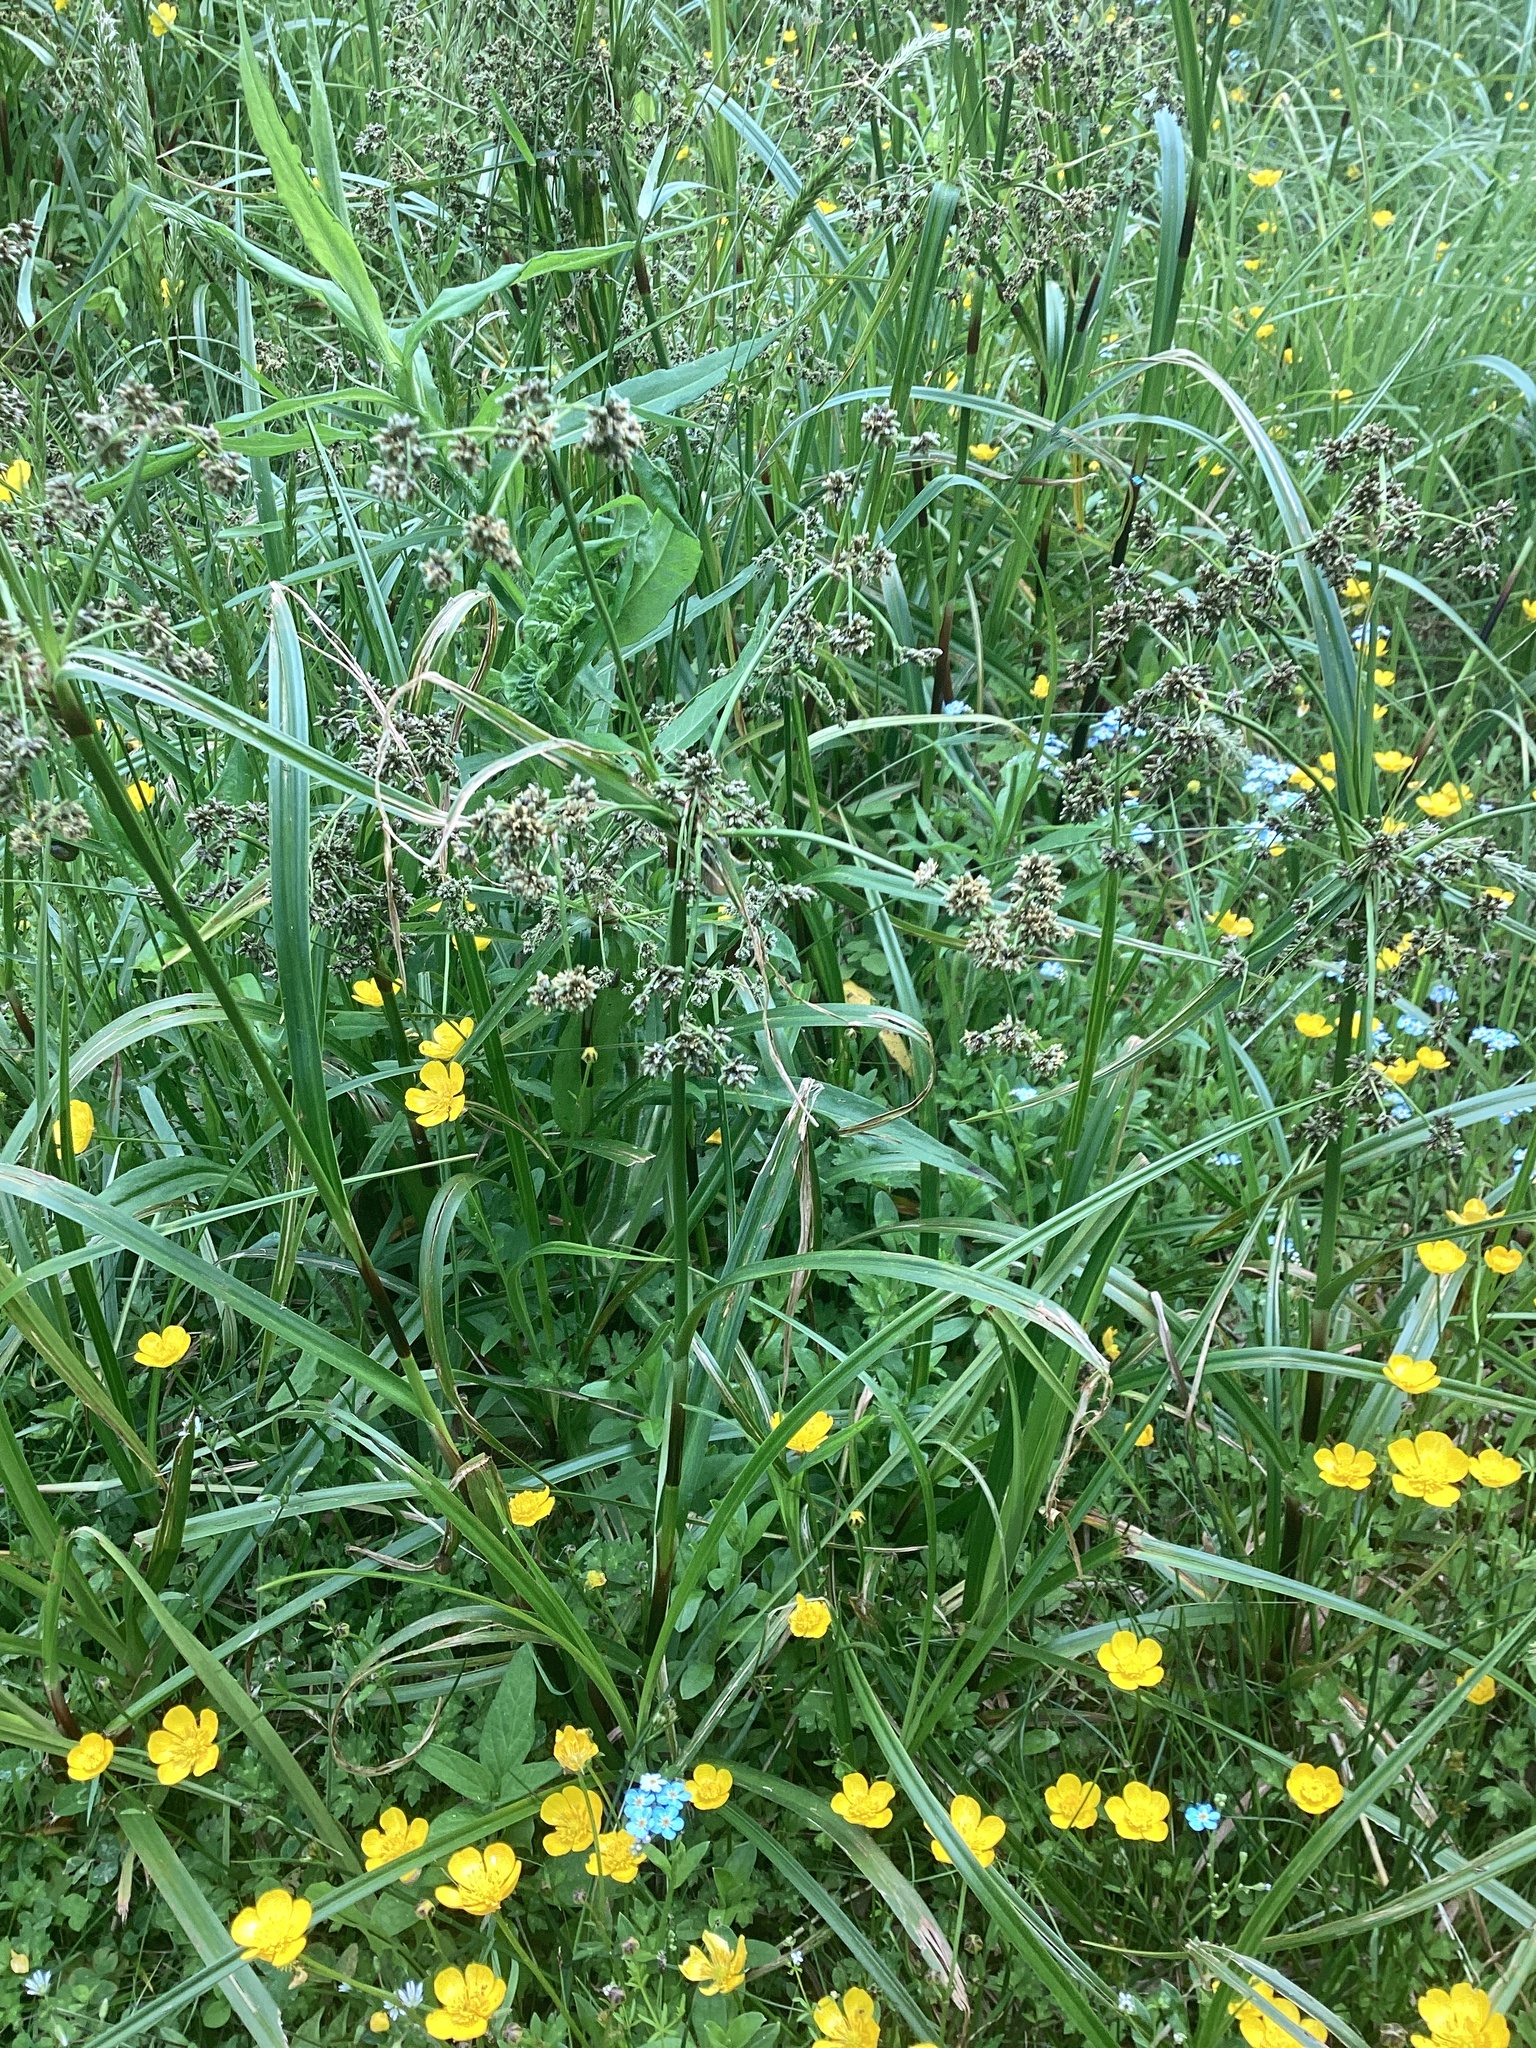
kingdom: Plantae
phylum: Tracheophyta
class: Magnoliopsida
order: Ranunculales
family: Ranunculaceae
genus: Ranunculus
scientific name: Ranunculus repens
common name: Creeping buttercup
